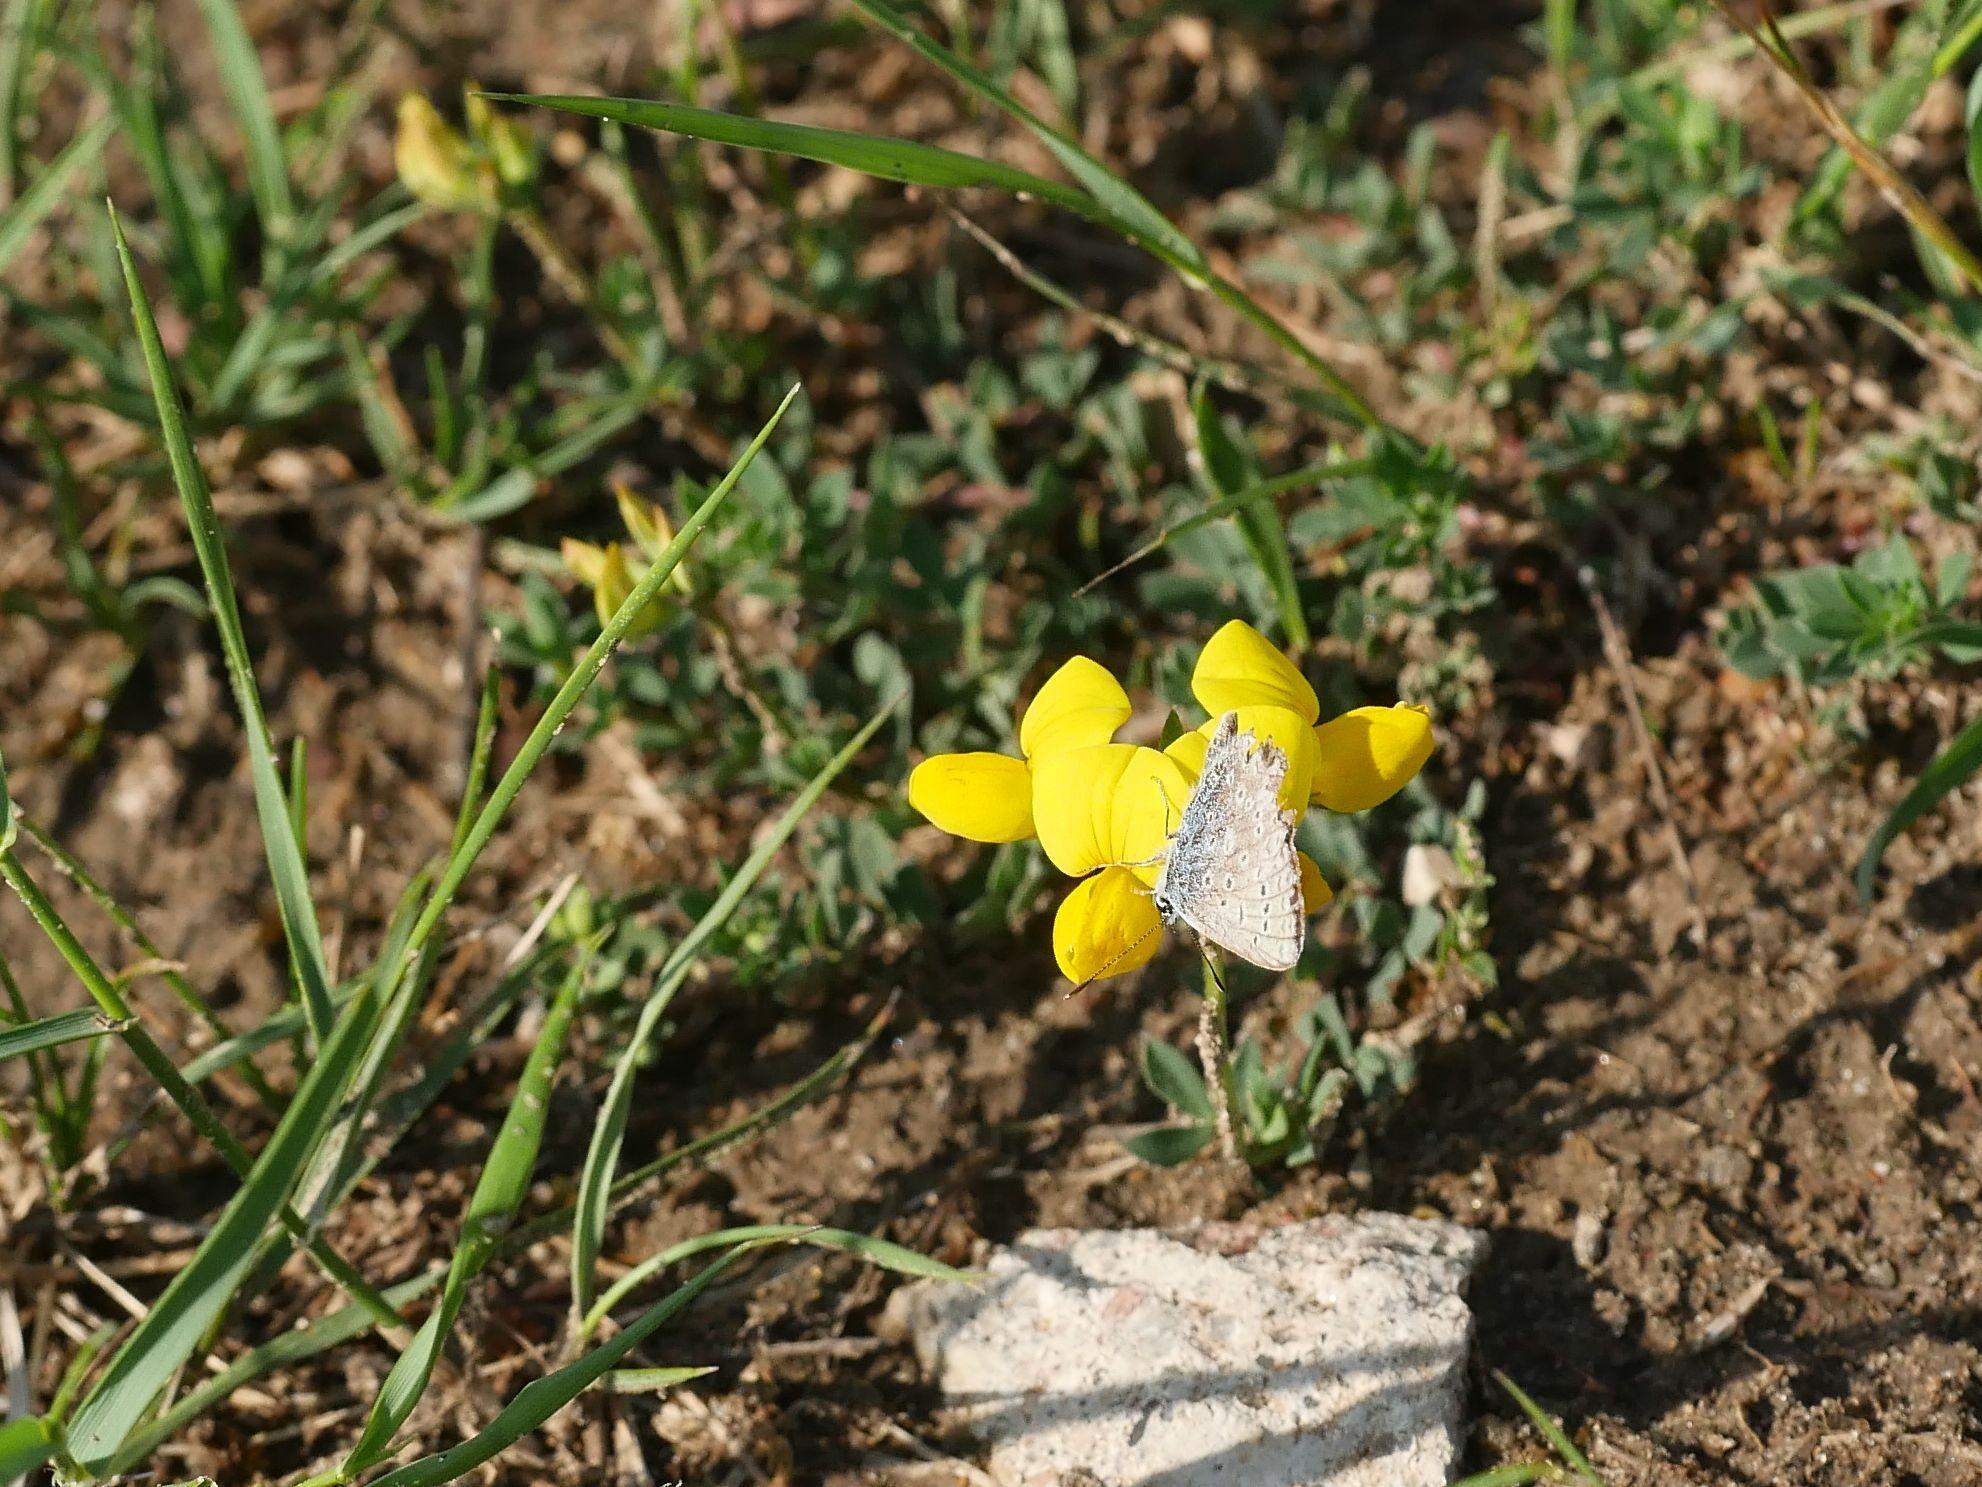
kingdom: Plantae
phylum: Tracheophyta
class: Magnoliopsida
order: Fabales
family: Fabaceae
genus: Lotus
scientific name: Lotus corniculatus
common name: Common bird's-foot-trefoil
